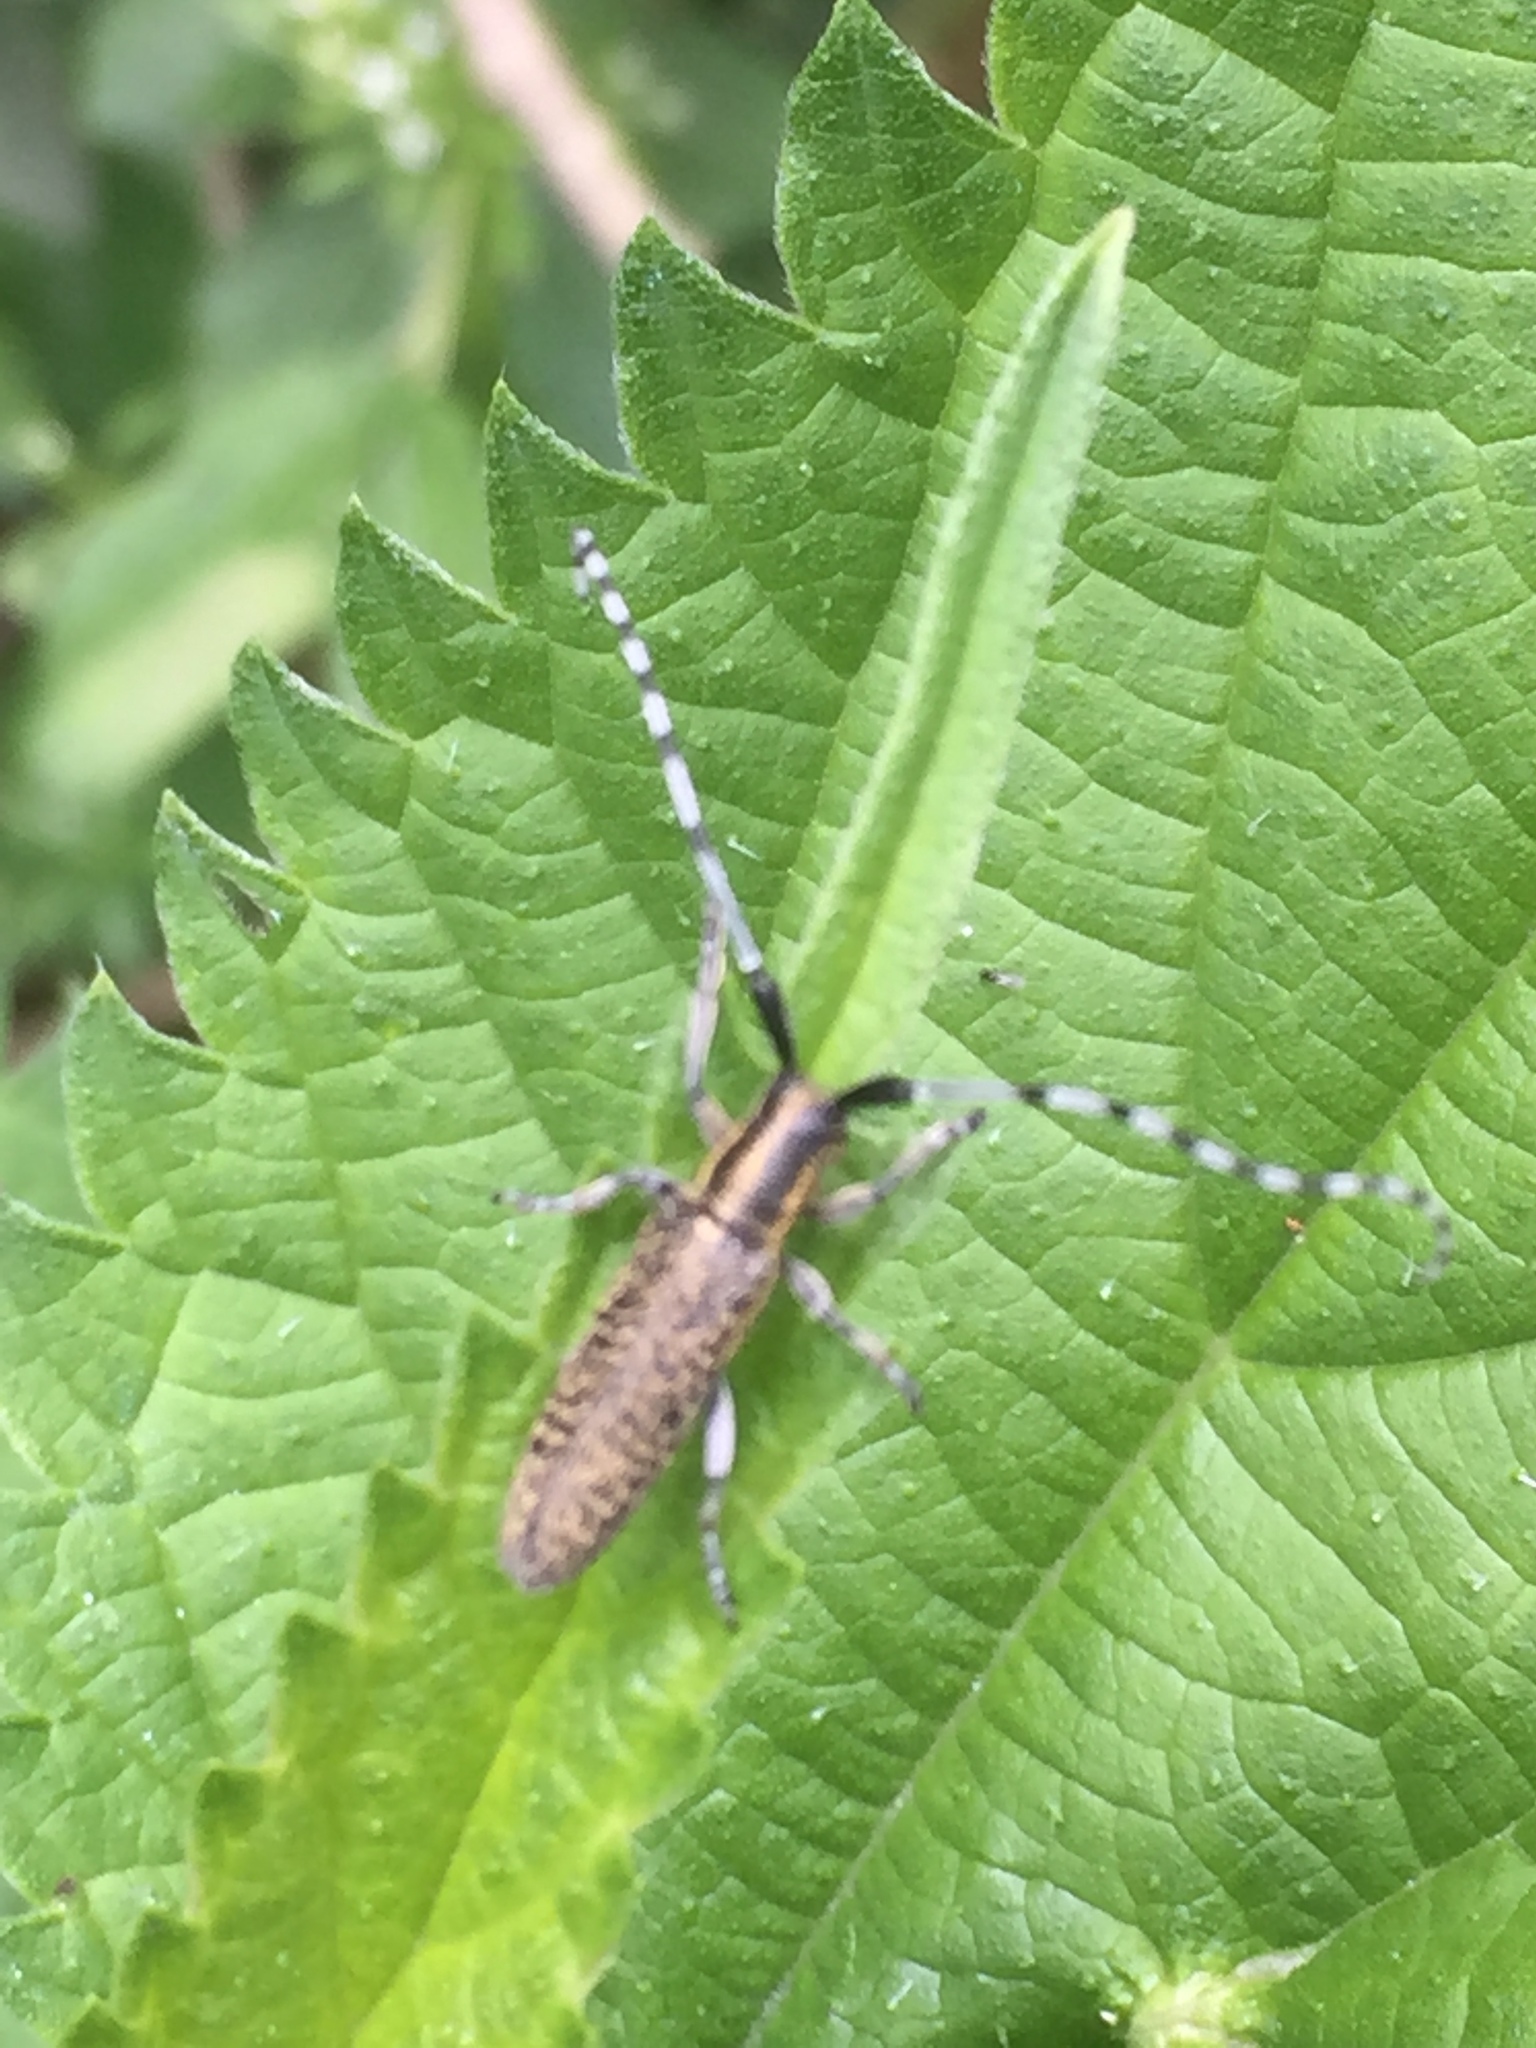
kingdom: Animalia
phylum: Arthropoda
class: Insecta
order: Coleoptera
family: Cerambycidae
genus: Agapanthia
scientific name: Agapanthia villosoviridescens
